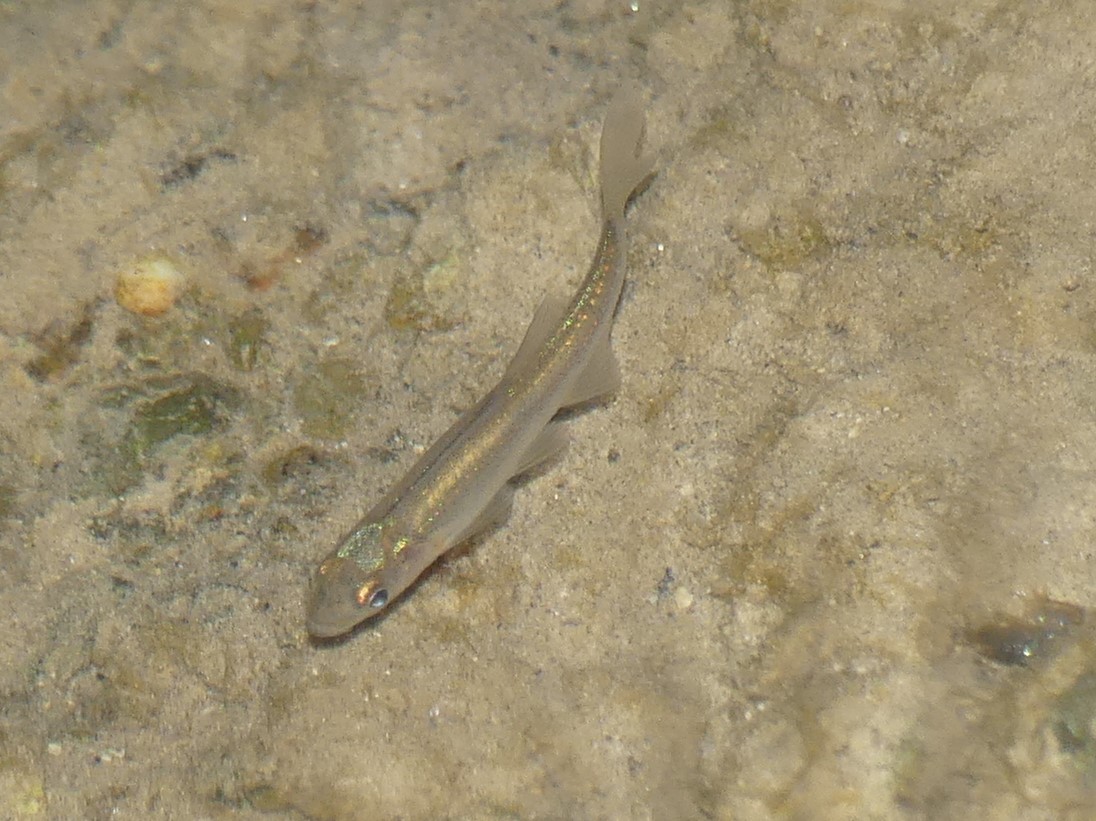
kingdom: Animalia
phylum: Chordata
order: Cypriniformes
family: Cyprinidae
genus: Telestes
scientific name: Telestes souffia
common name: Souffia
